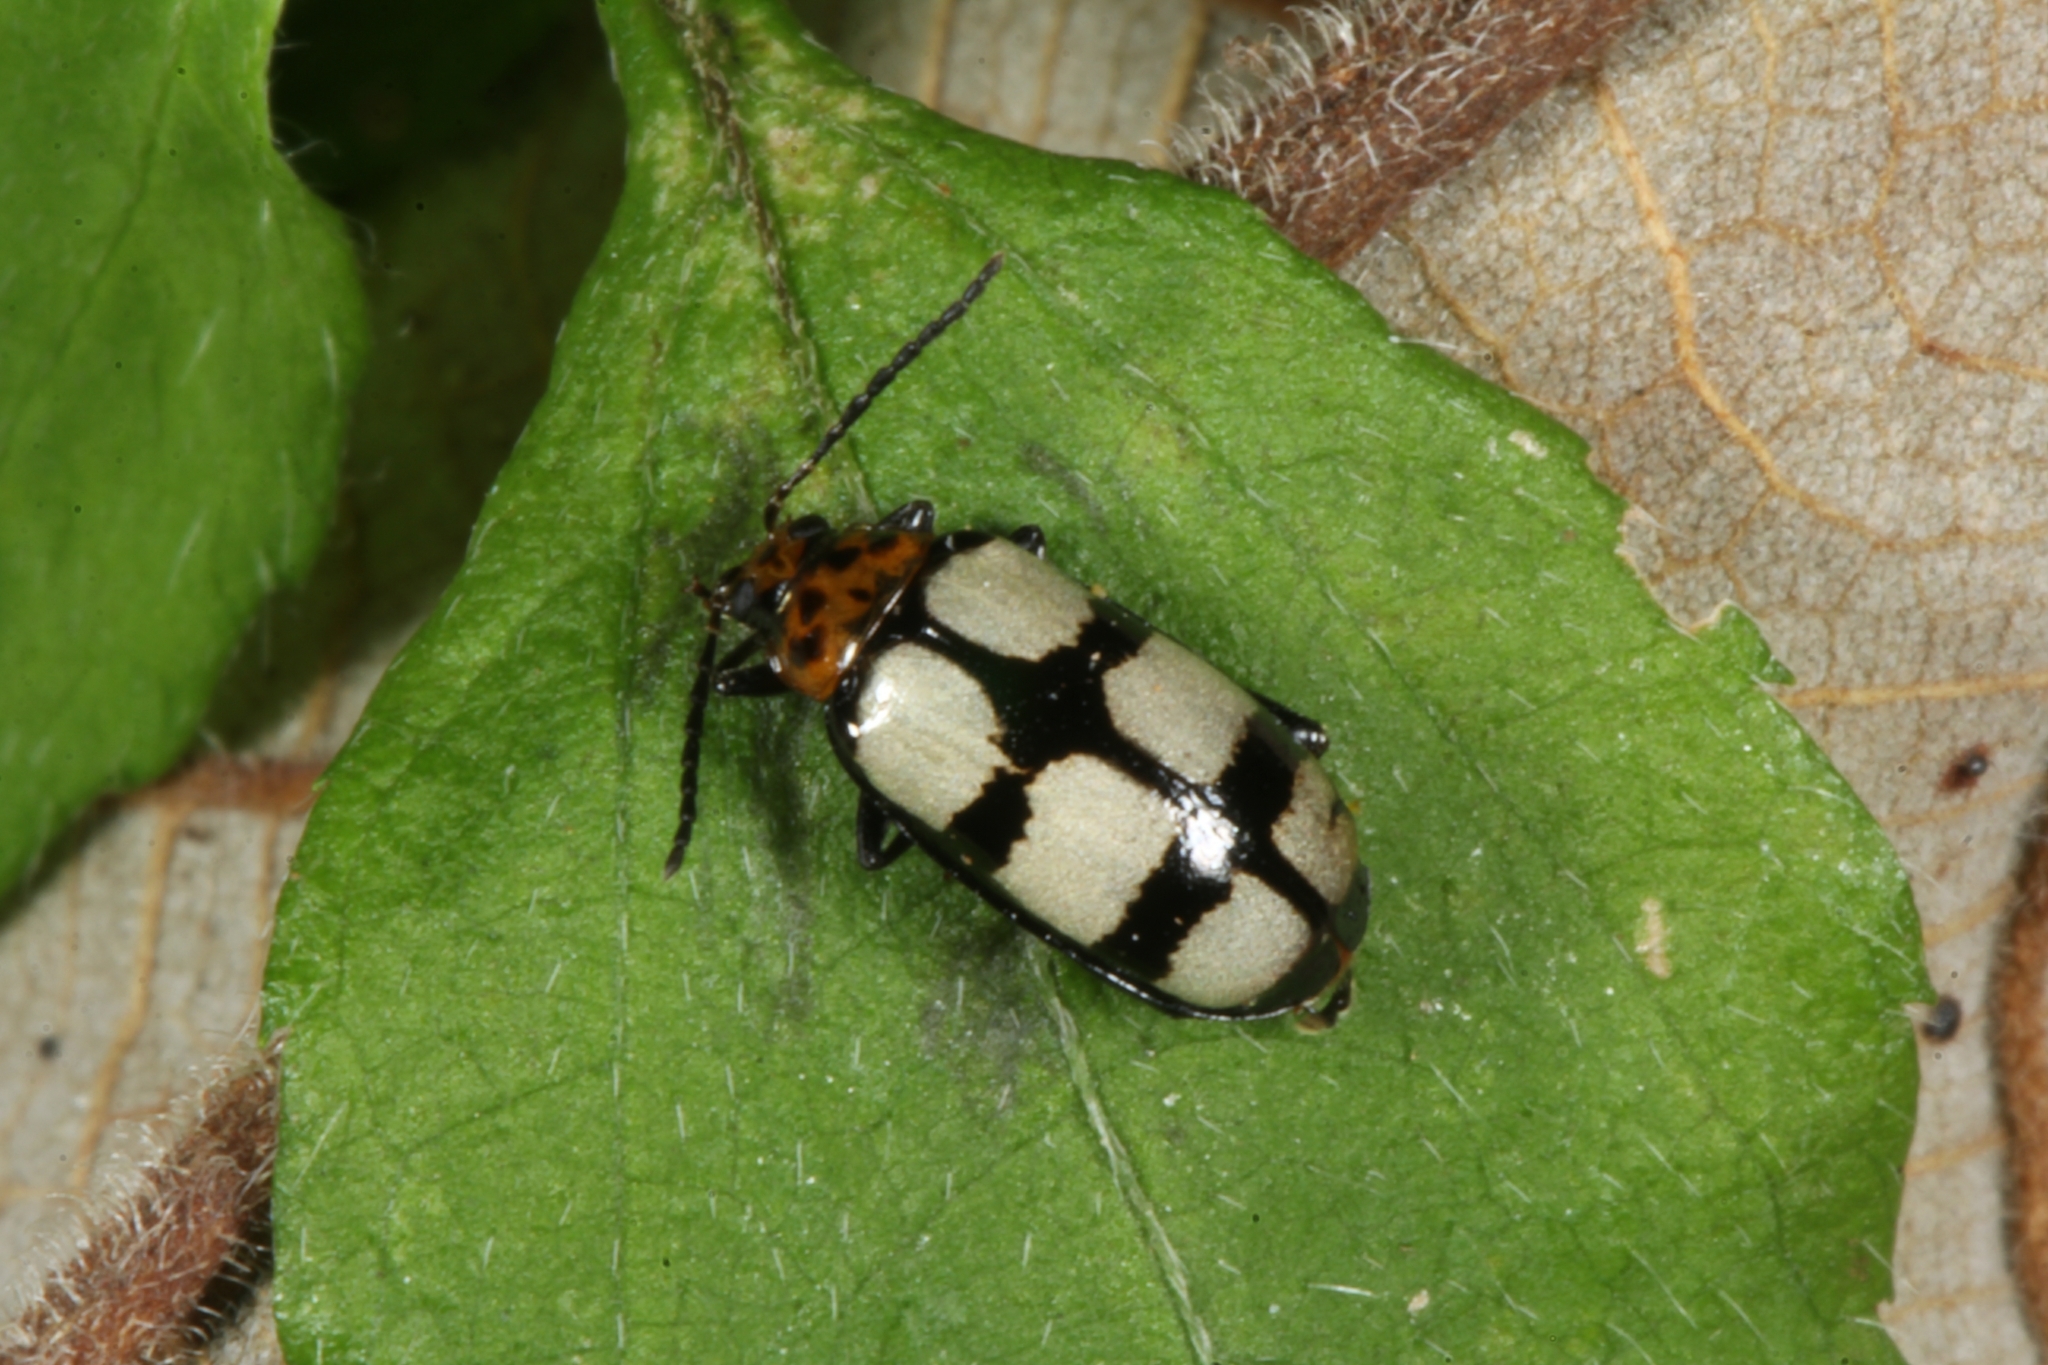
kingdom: Animalia
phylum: Arthropoda
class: Insecta
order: Coleoptera
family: Chrysomelidae
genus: Disonycha
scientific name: Disonycha
